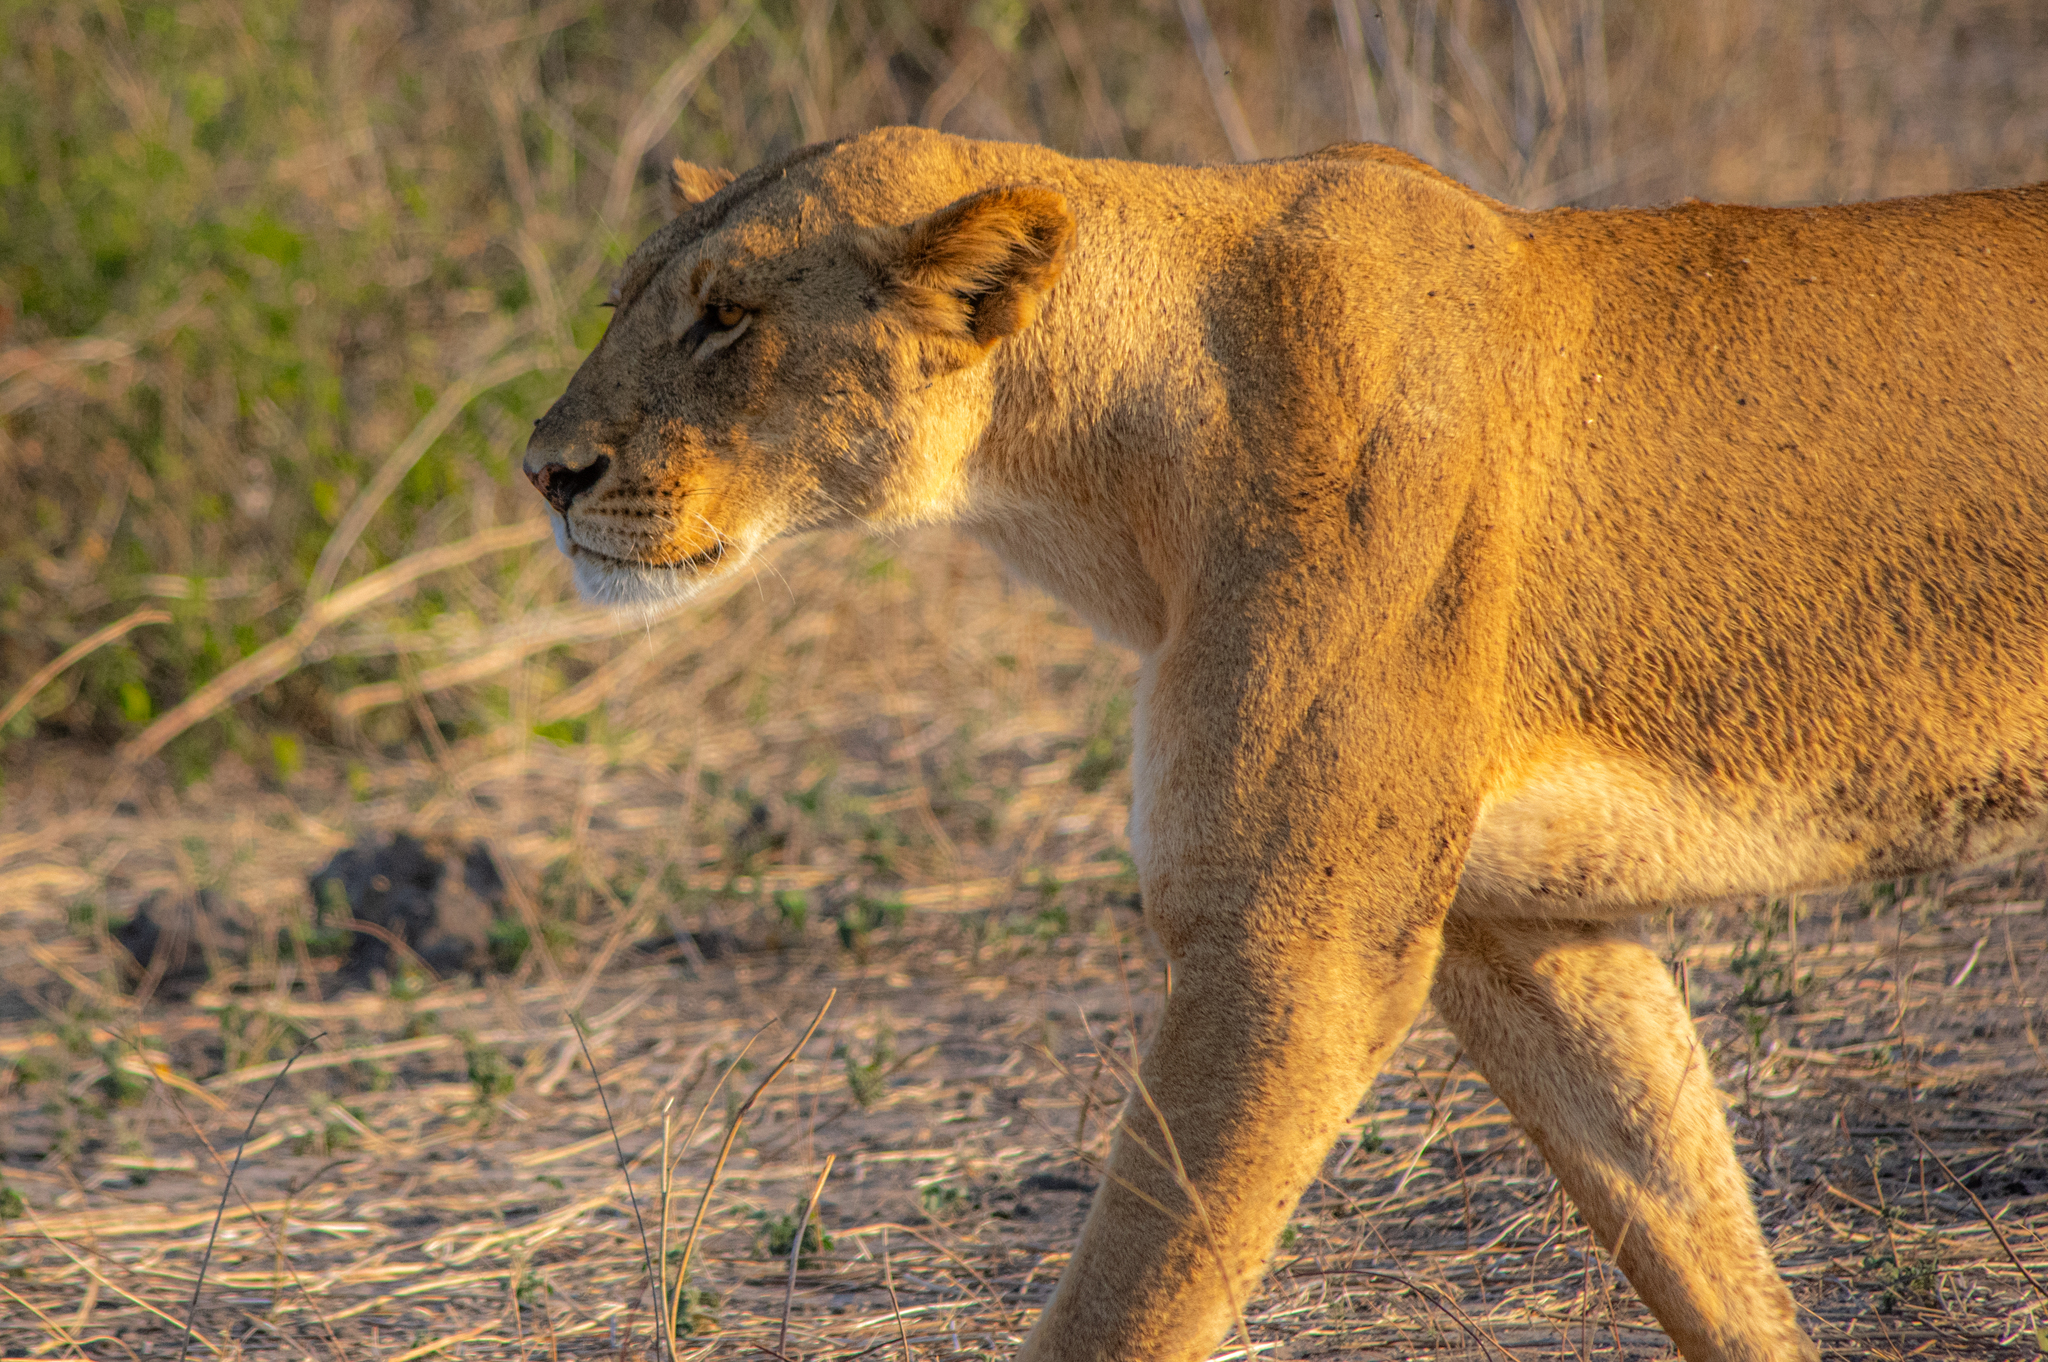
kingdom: Animalia
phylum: Chordata
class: Mammalia
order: Carnivora
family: Felidae
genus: Panthera
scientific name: Panthera leo
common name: Lion
